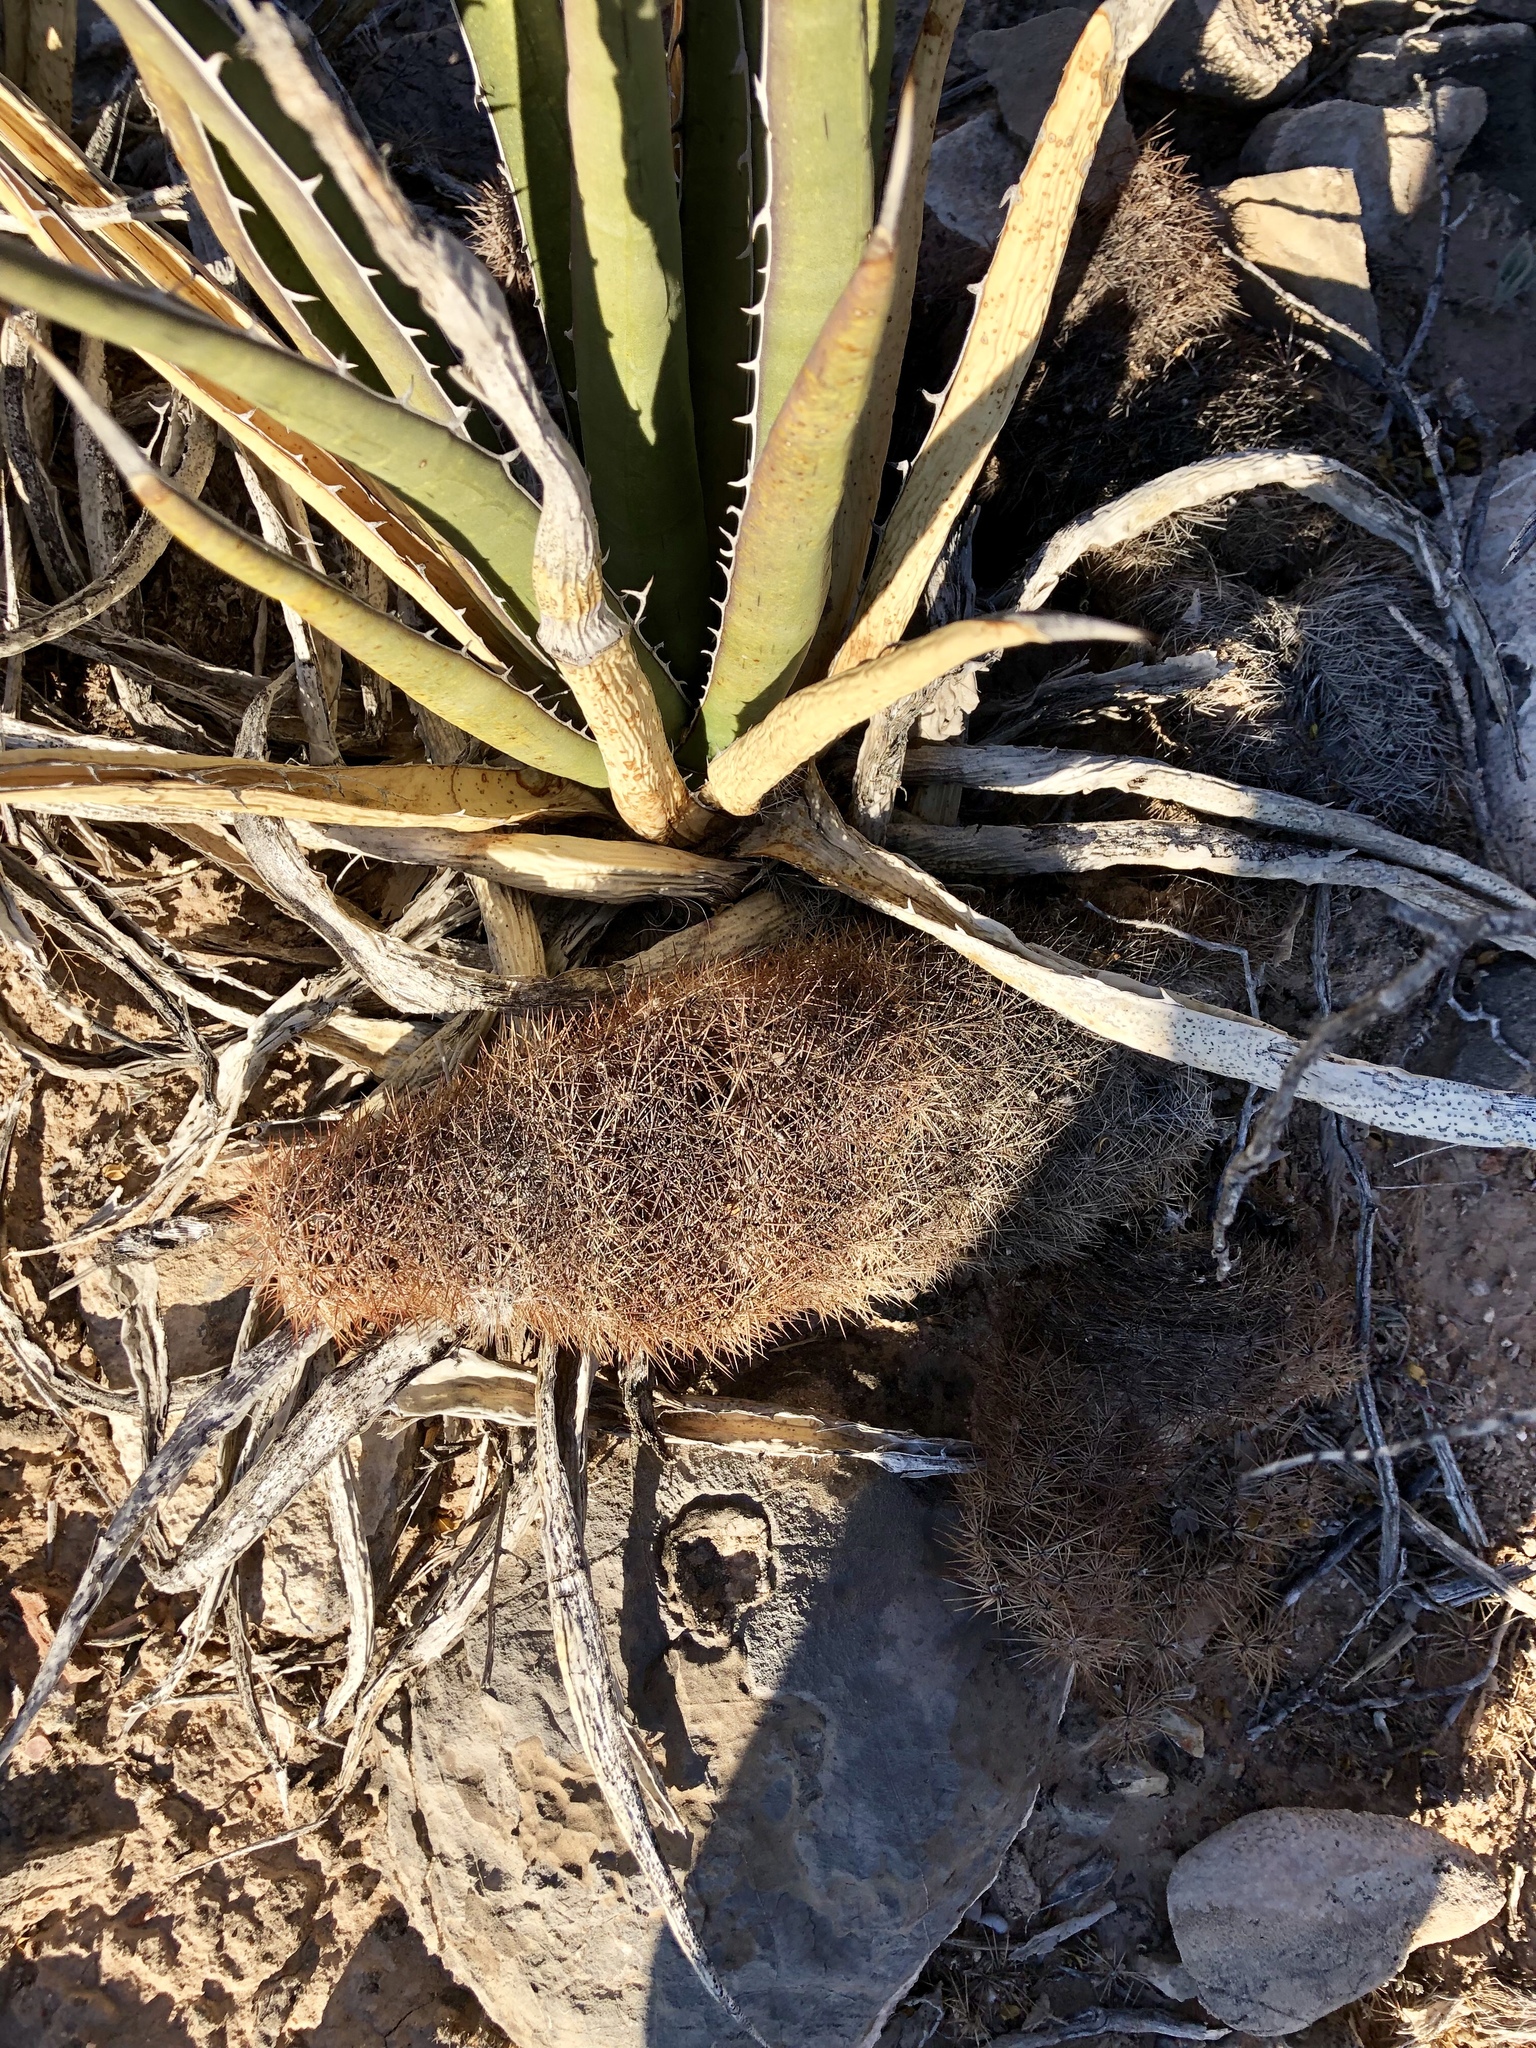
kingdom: Plantae
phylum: Tracheophyta
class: Magnoliopsida
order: Caryophyllales
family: Cactaceae
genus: Echinocereus
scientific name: Echinocereus dasyacanthus
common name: Spiny hedgehog cactus
